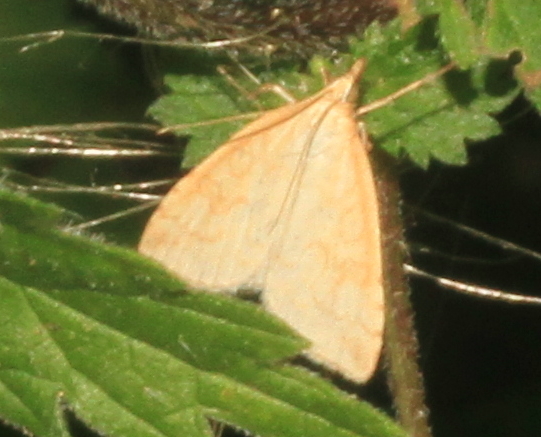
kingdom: Animalia
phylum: Arthropoda
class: Insecta
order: Lepidoptera
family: Crambidae
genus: Udea
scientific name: Udea lutealis
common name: Pale straw pearl
